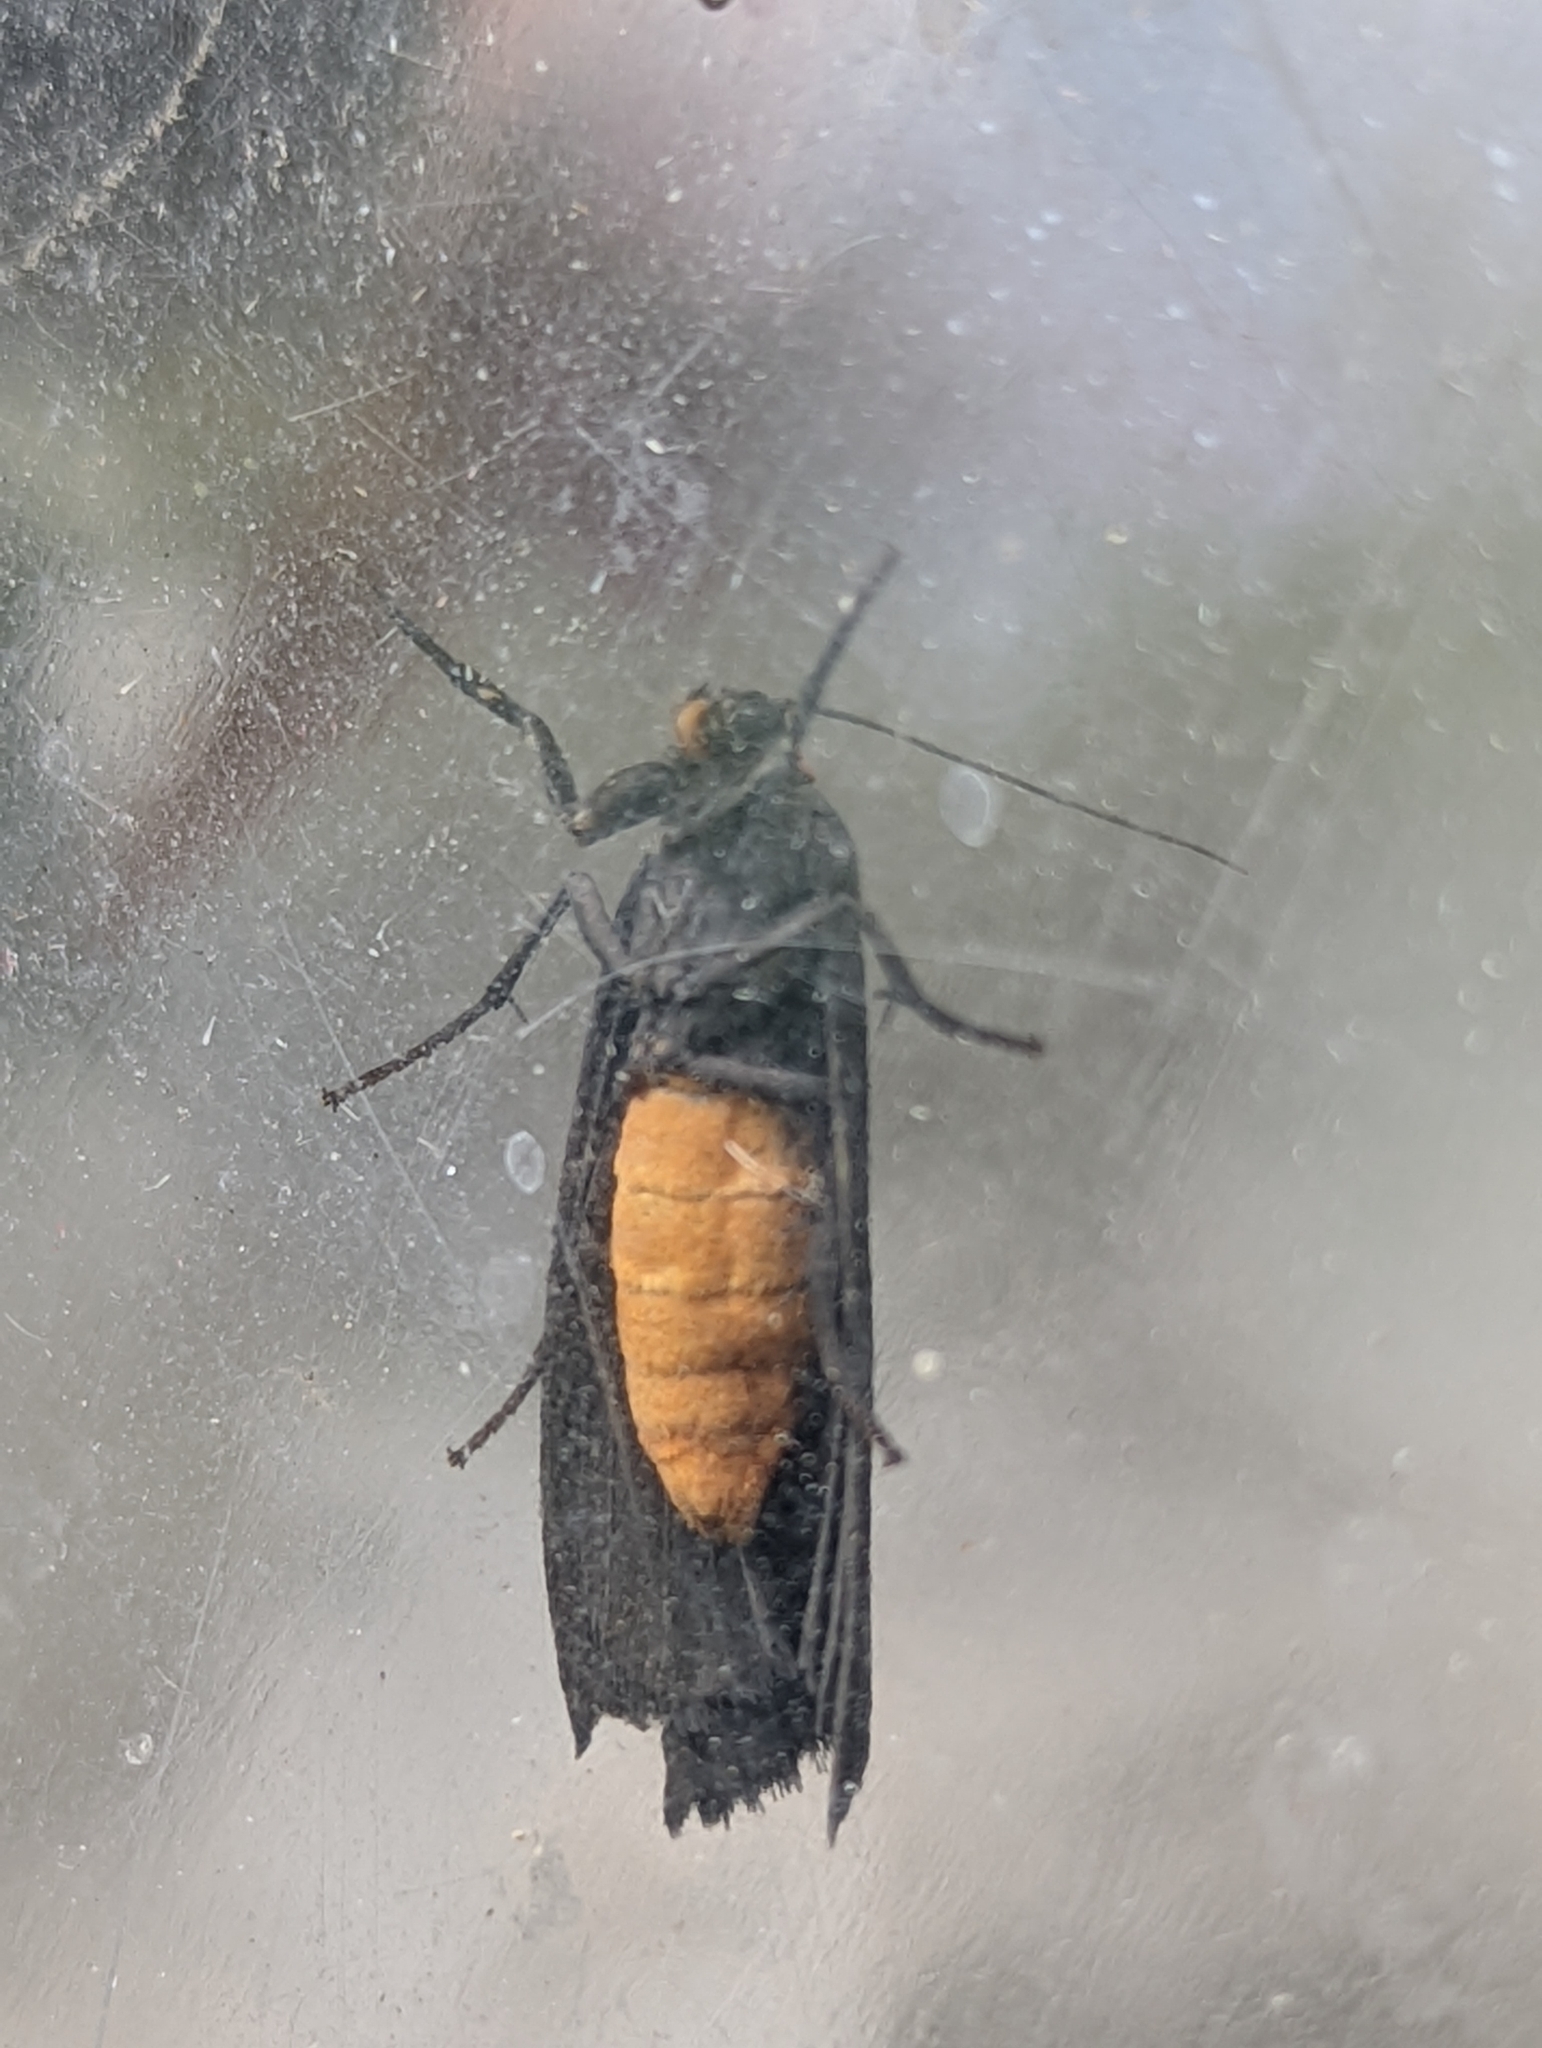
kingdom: Animalia
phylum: Arthropoda
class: Insecta
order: Lepidoptera
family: Erebidae
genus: Atolmis
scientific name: Atolmis rubricollis
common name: Red-necked footman
